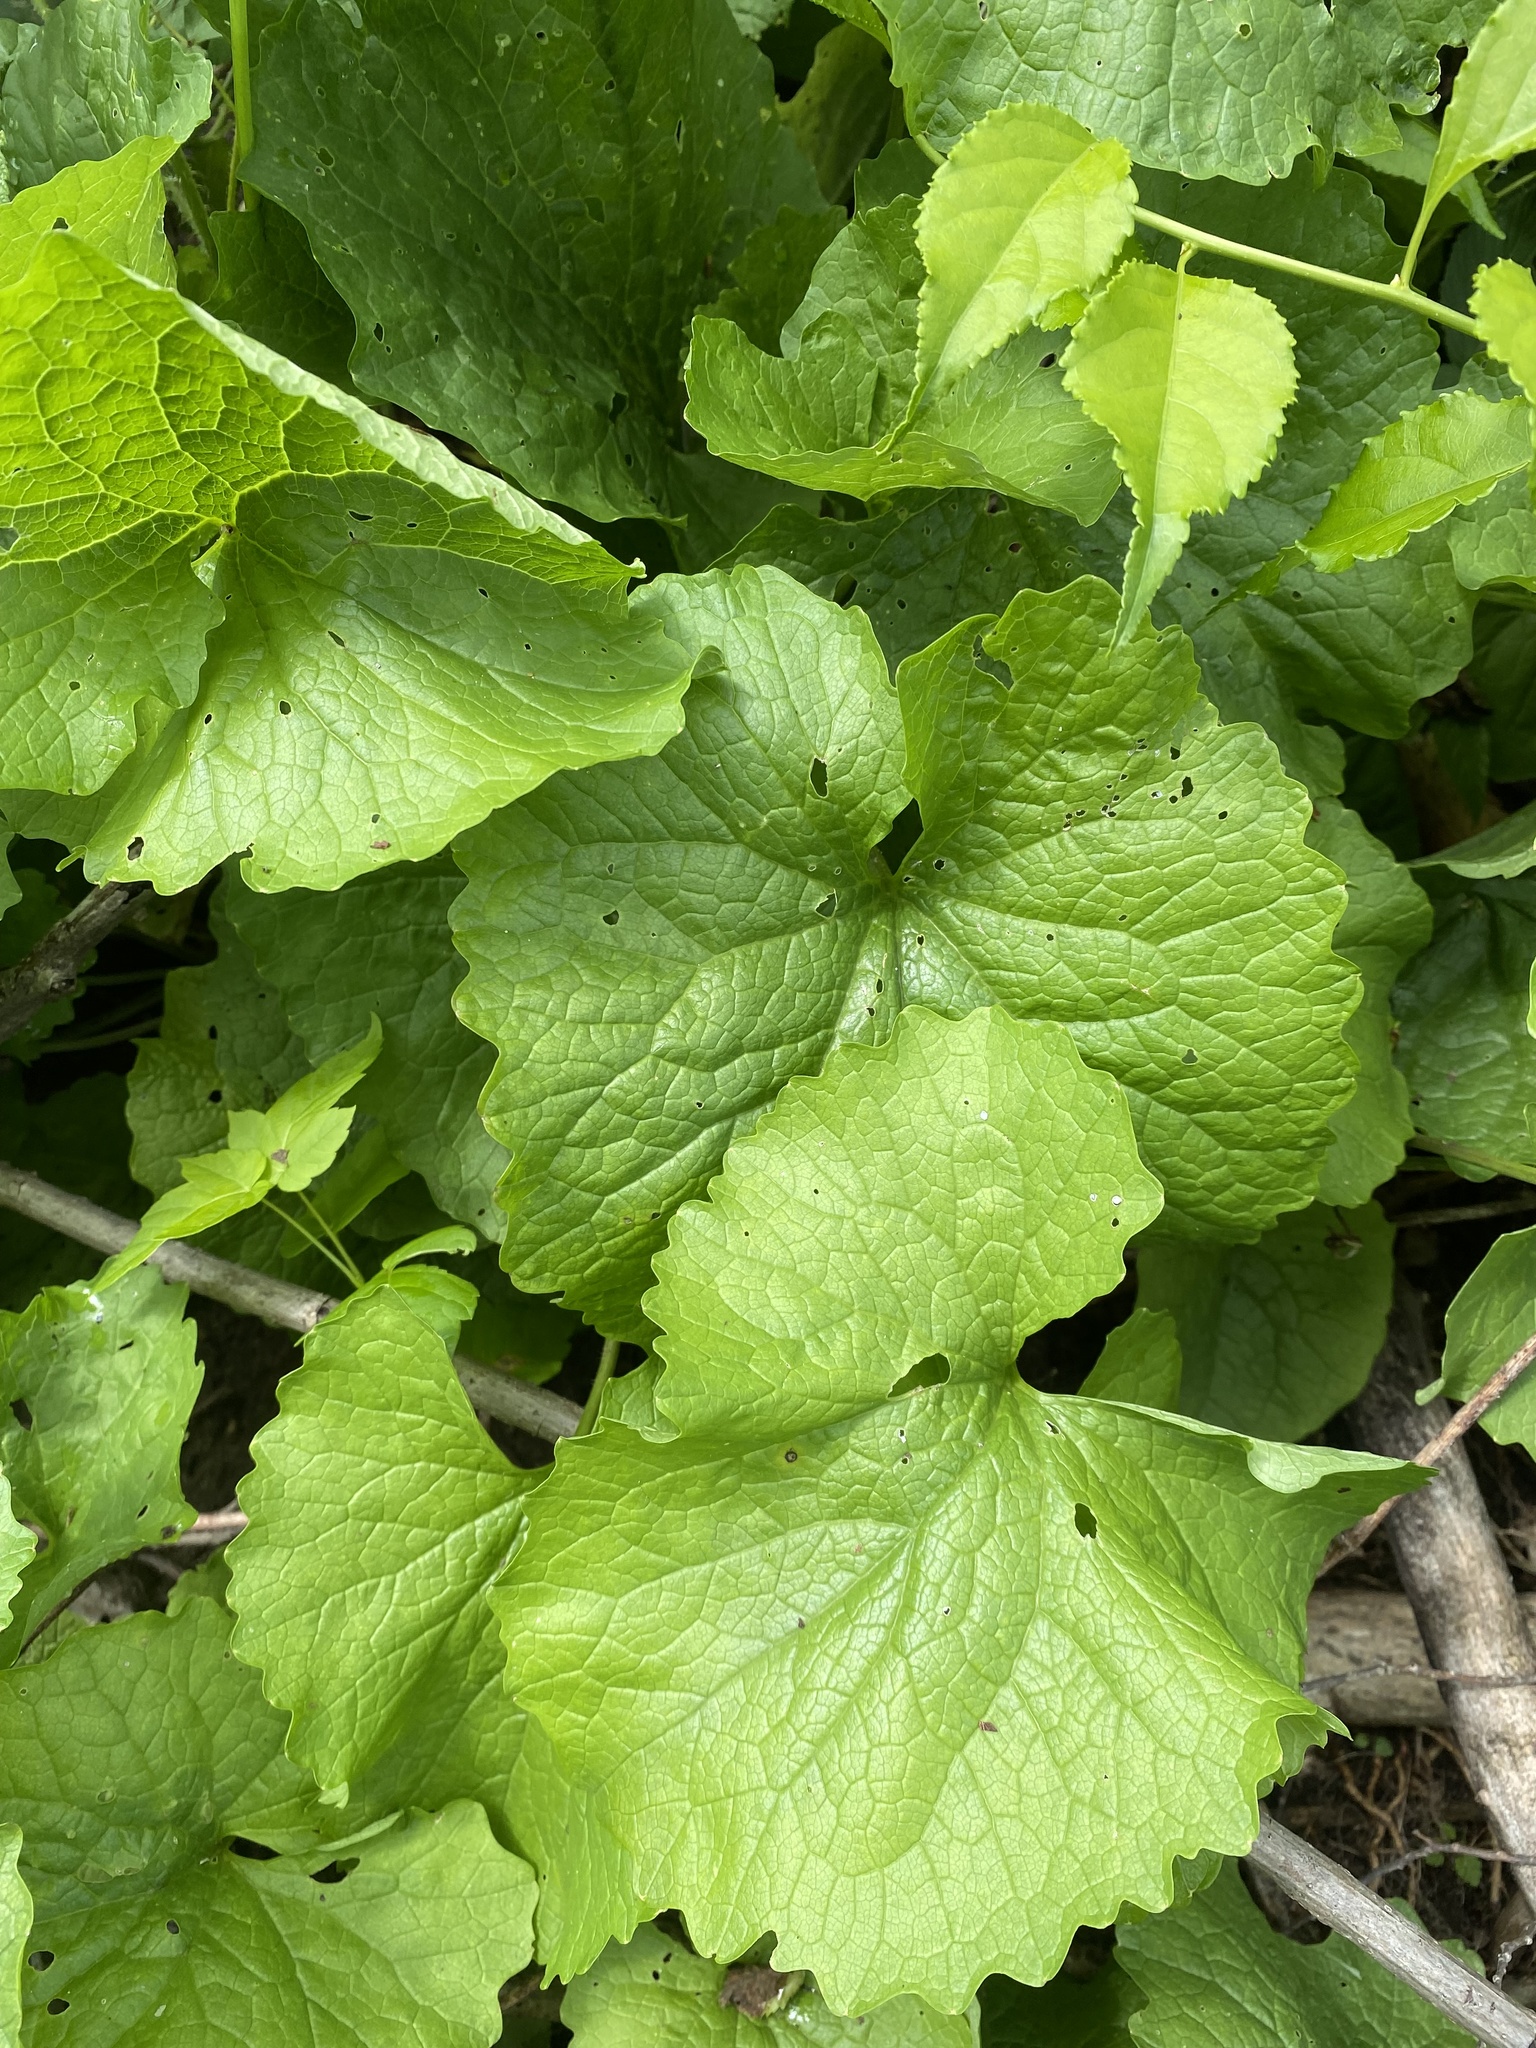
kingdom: Plantae
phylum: Tracheophyta
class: Magnoliopsida
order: Brassicales
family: Brassicaceae
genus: Alliaria
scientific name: Alliaria petiolata
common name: Garlic mustard
